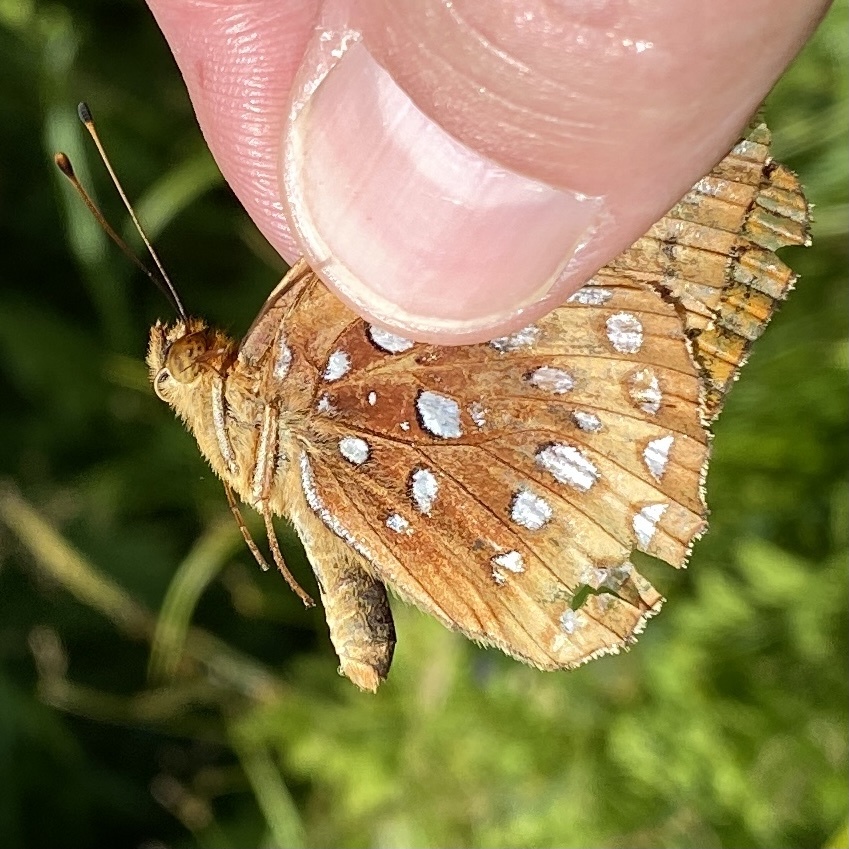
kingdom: Animalia
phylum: Arthropoda
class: Insecta
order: Lepidoptera
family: Nymphalidae
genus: Speyeria
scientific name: Speyeria cybele
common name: Great spangled fritillary
